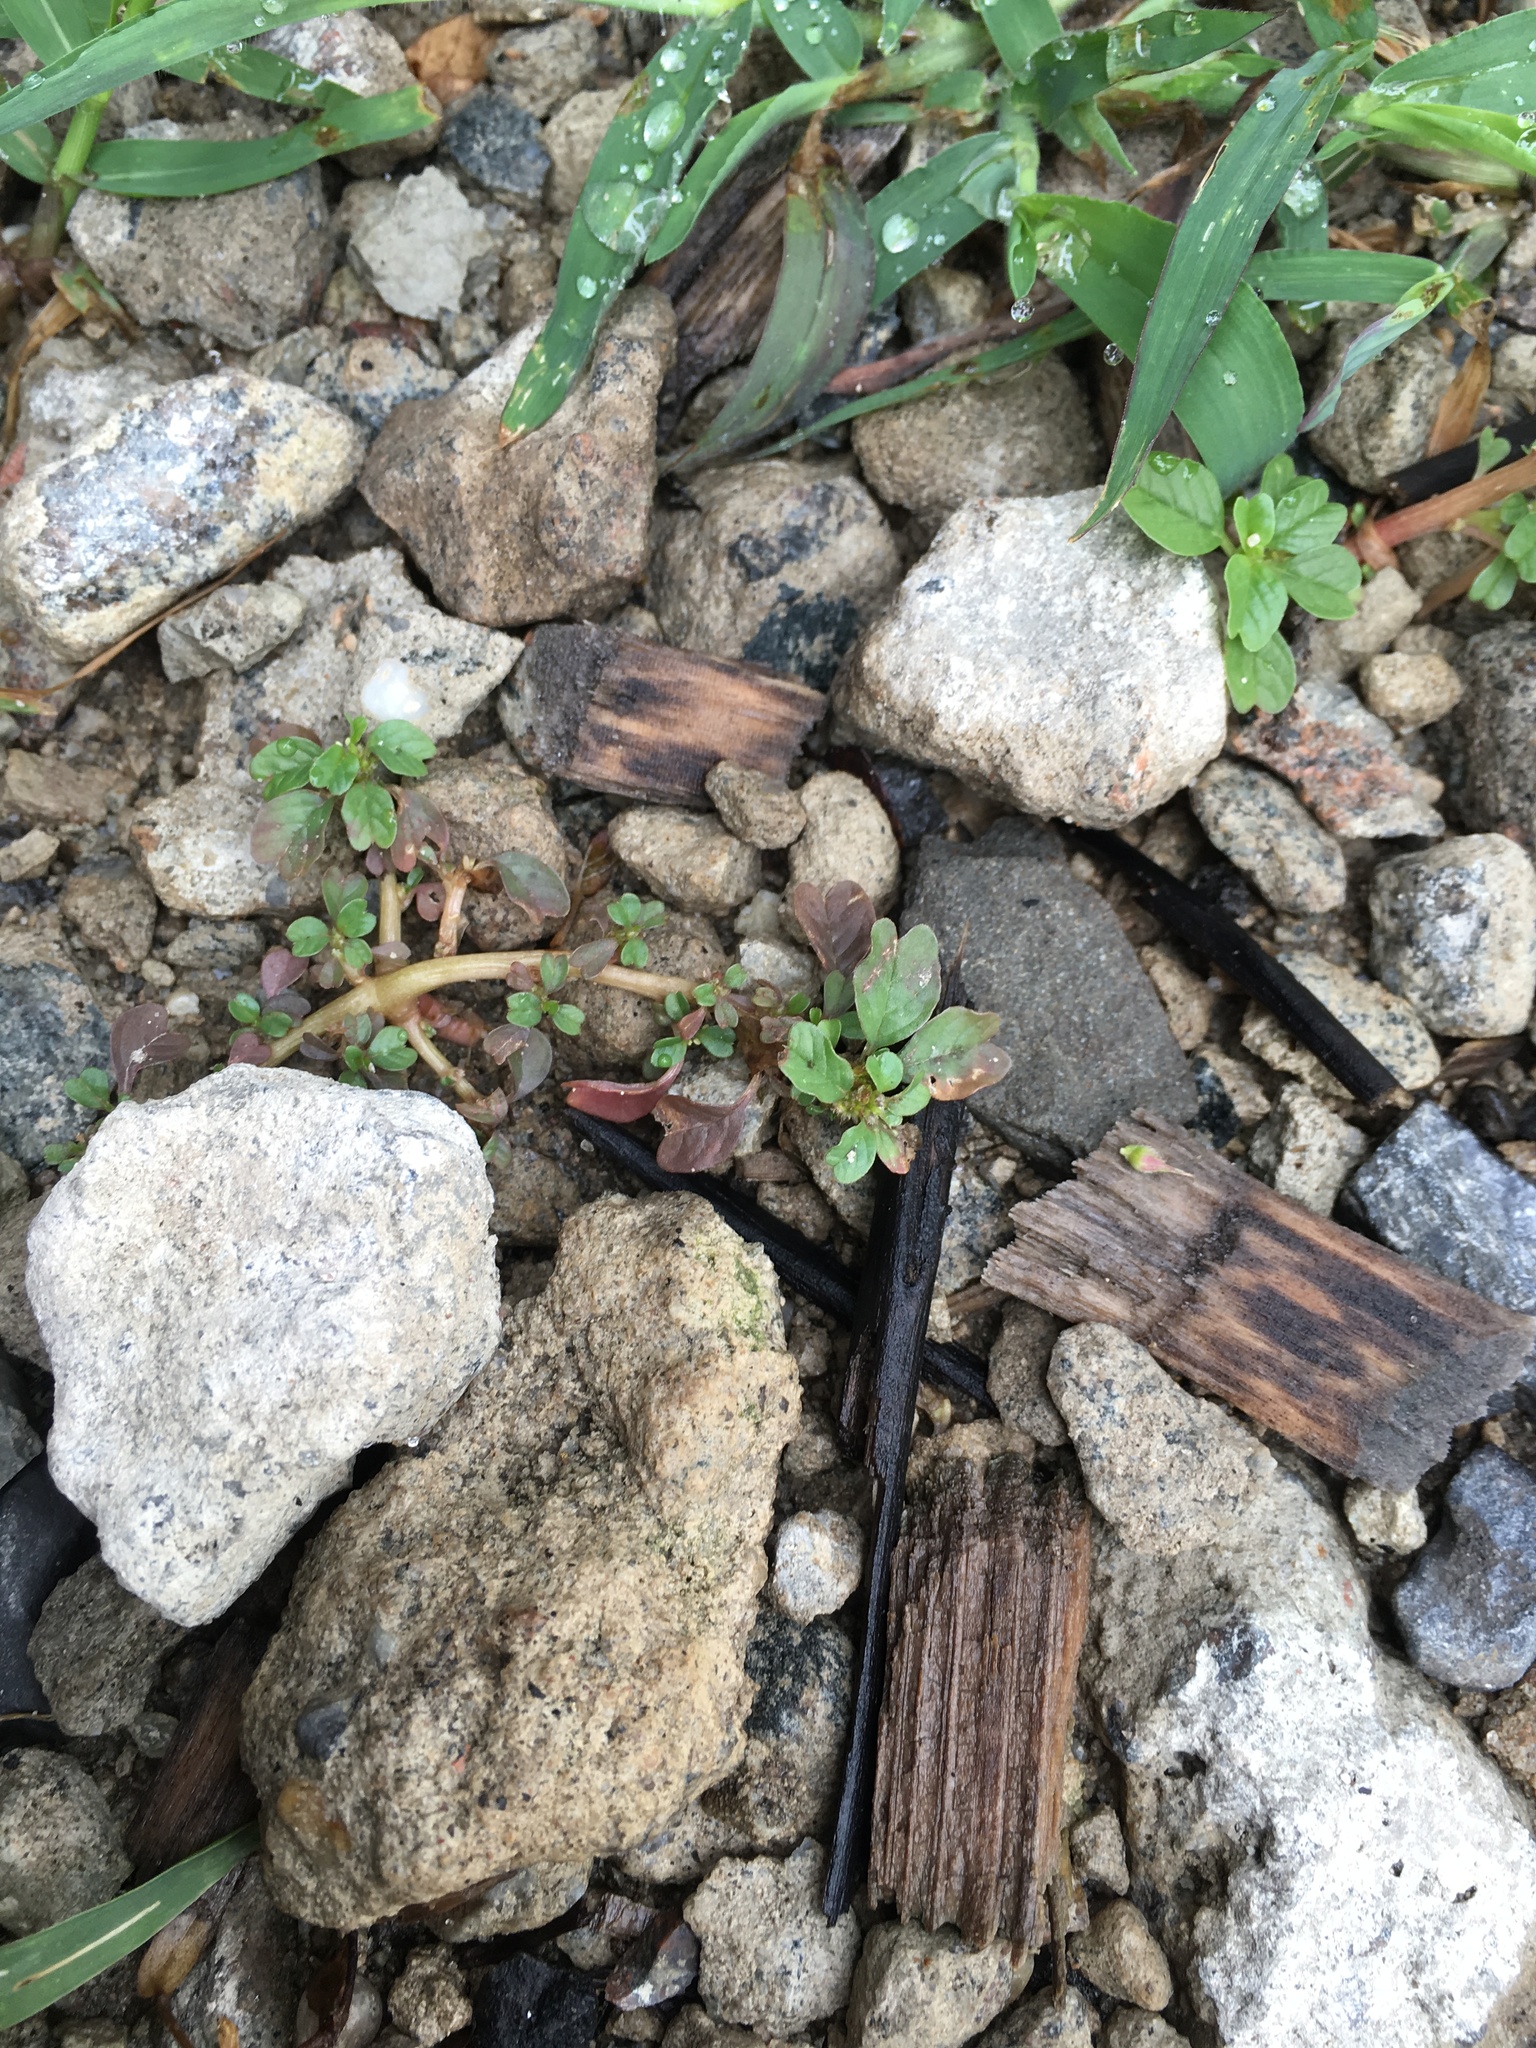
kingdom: Plantae
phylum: Tracheophyta
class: Magnoliopsida
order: Caryophyllales
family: Amaranthaceae
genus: Amaranthus
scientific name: Amaranthus blitum
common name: Purple amaranth
